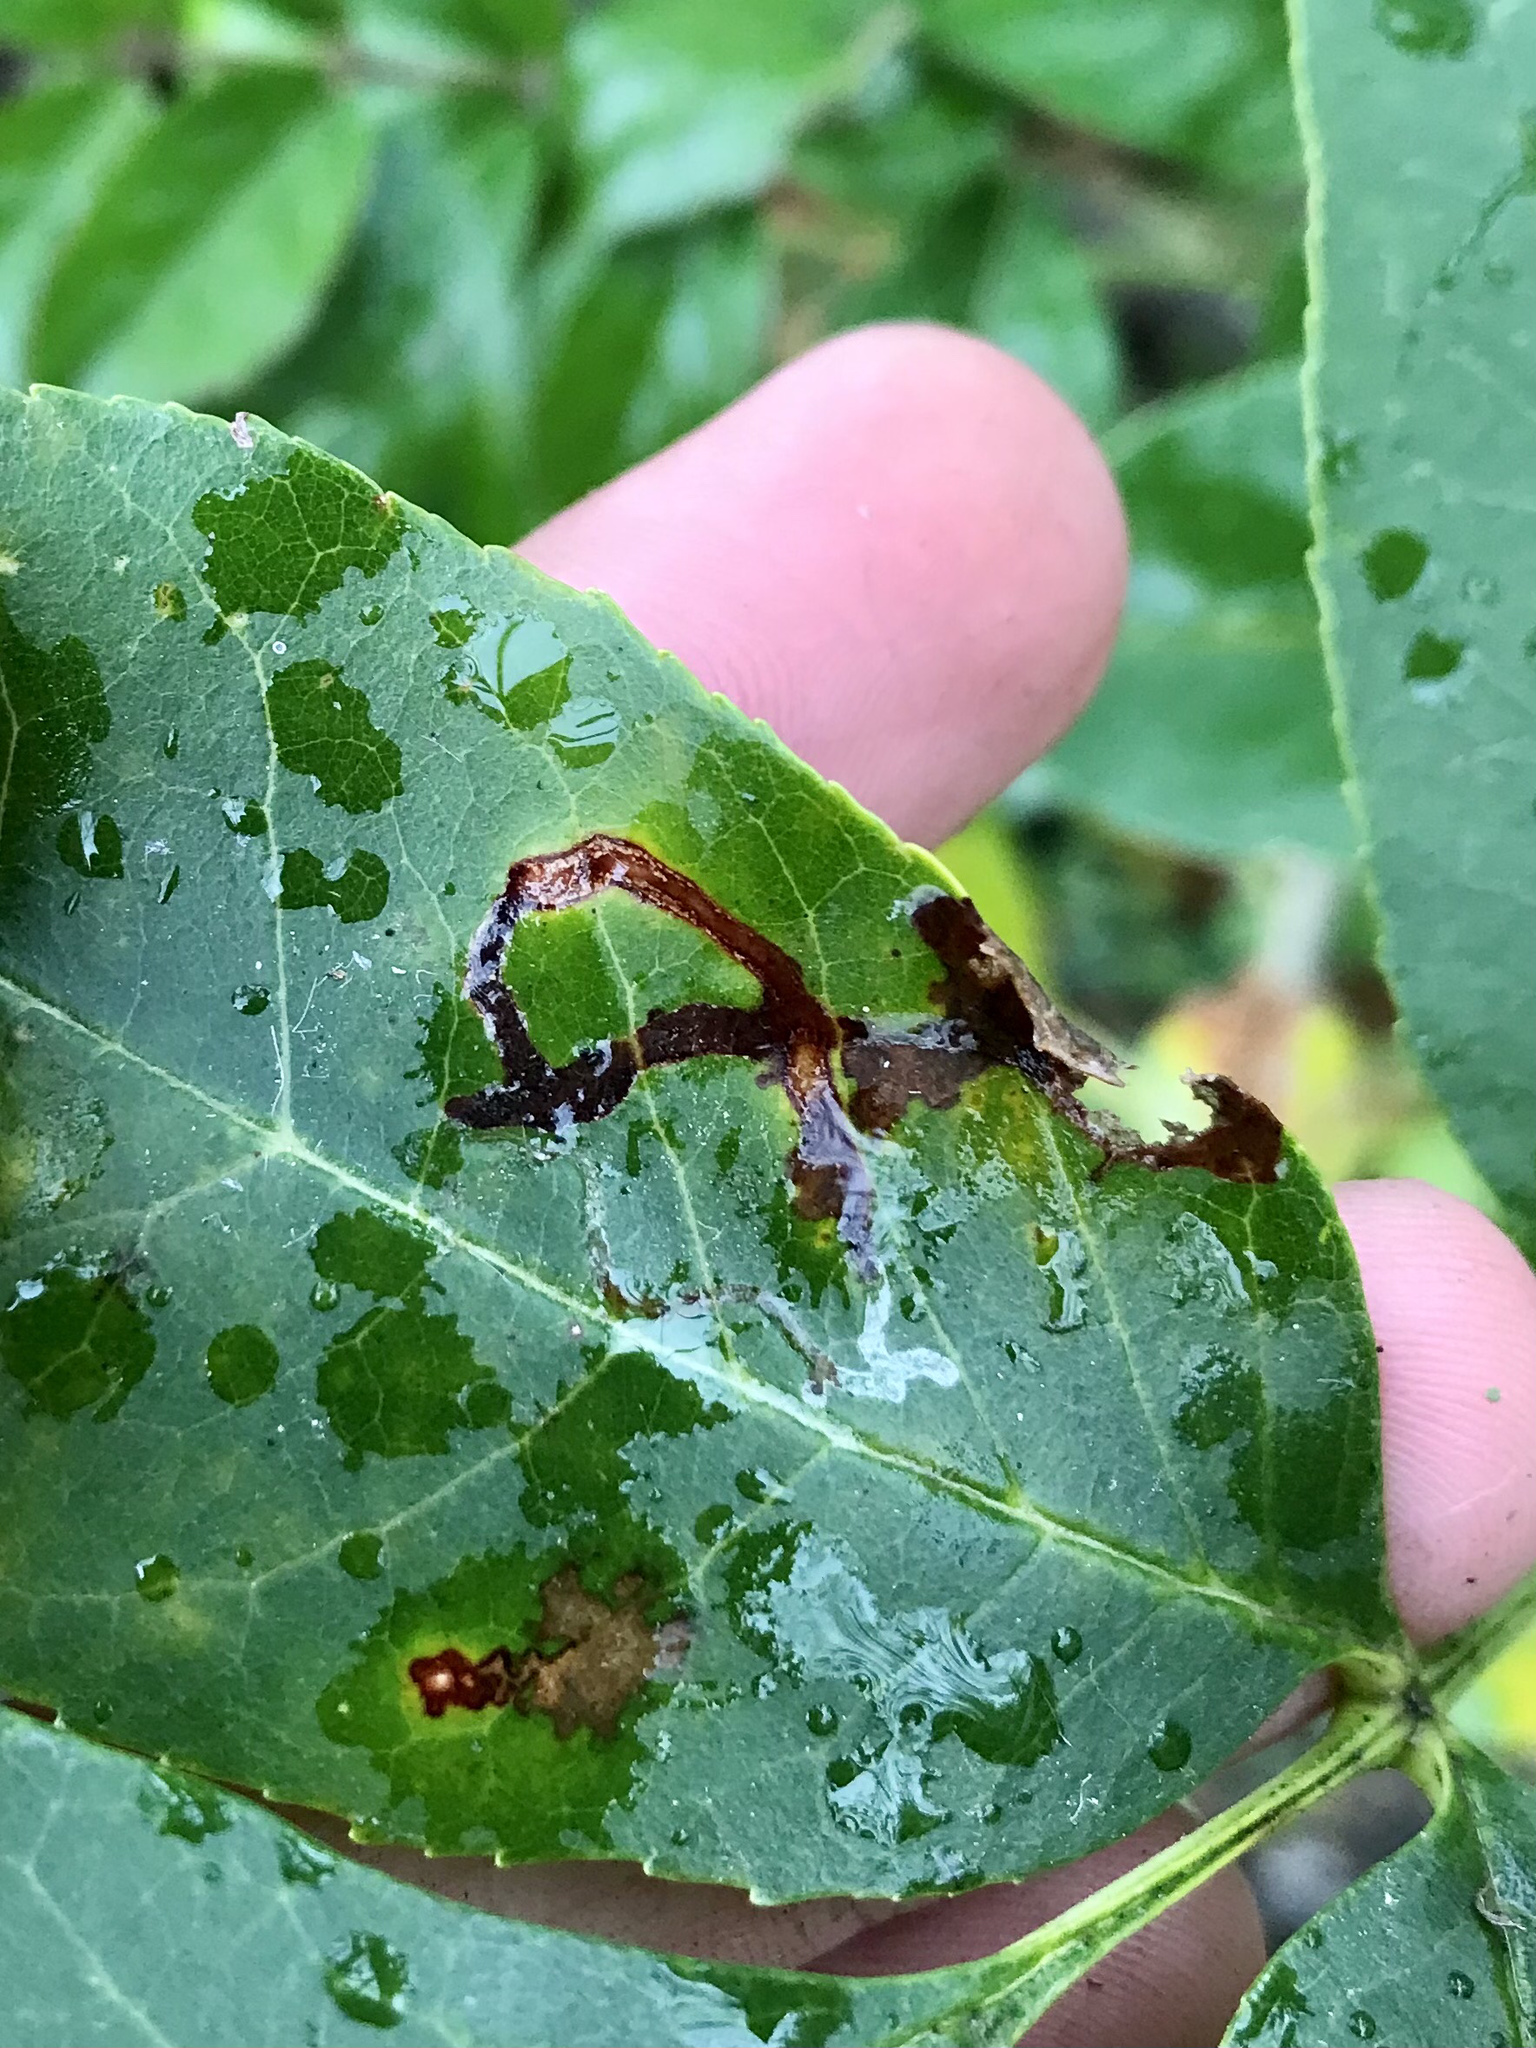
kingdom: Animalia
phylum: Arthropoda
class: Insecta
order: Lepidoptera
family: Gracillariidae
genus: Caloptilia
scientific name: Caloptilia fraxinella
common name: Ash leaf cone roller
